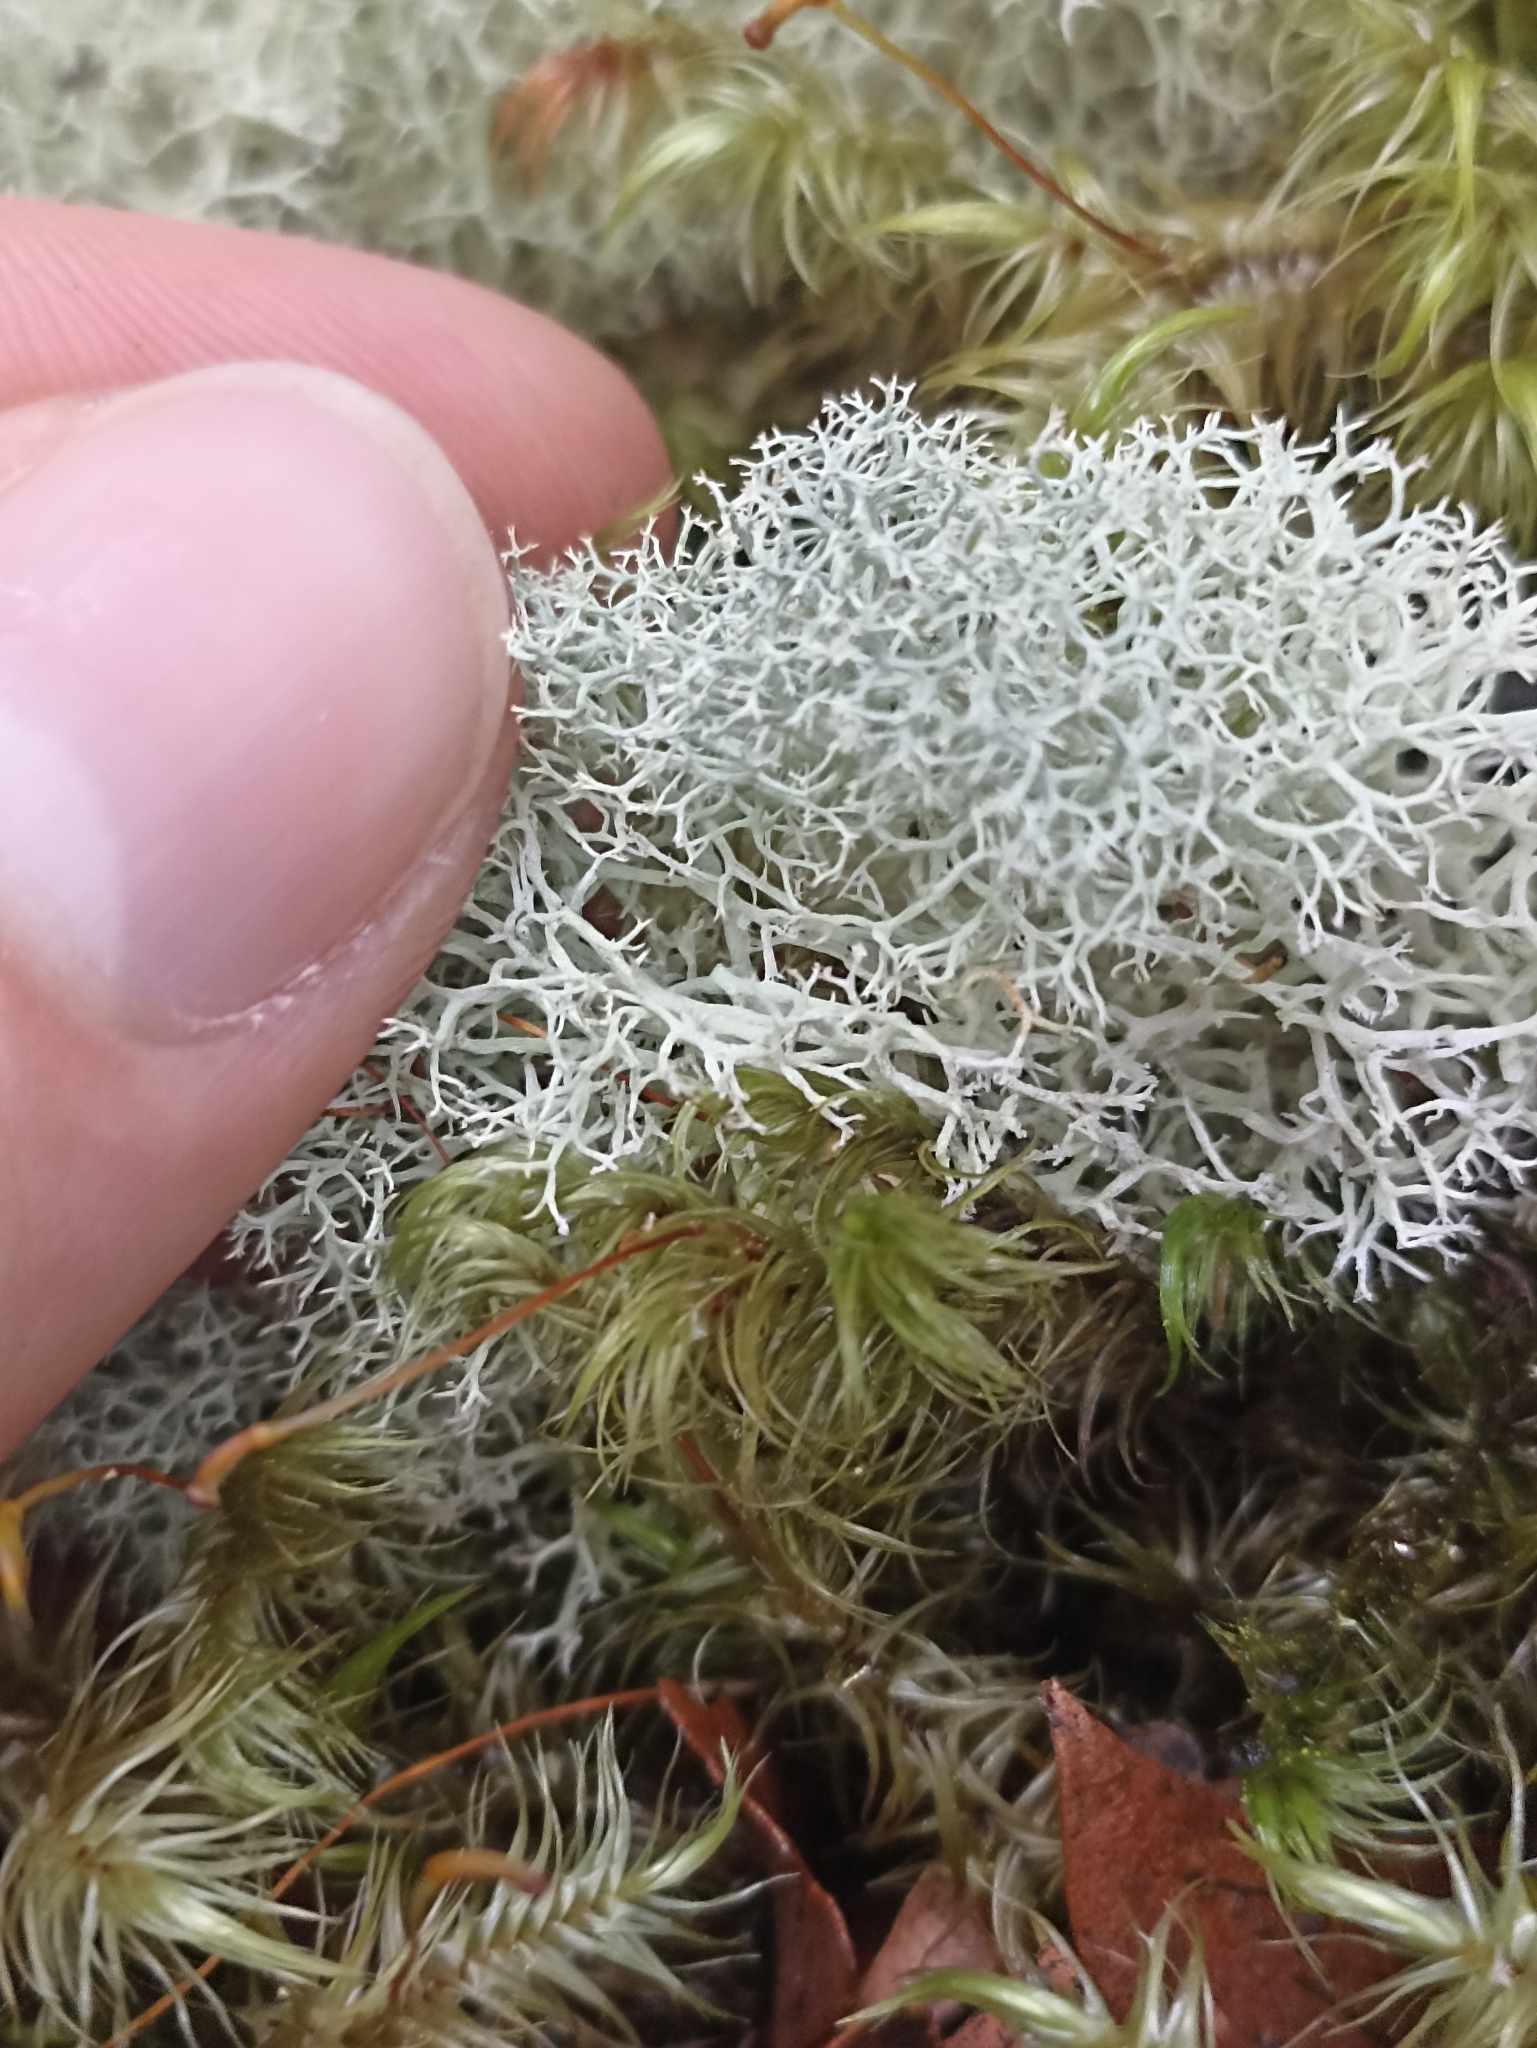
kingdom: Fungi
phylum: Ascomycota
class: Lecanoromycetes
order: Lecanorales
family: Cladoniaceae
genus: Cladonia
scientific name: Cladonia confusa
